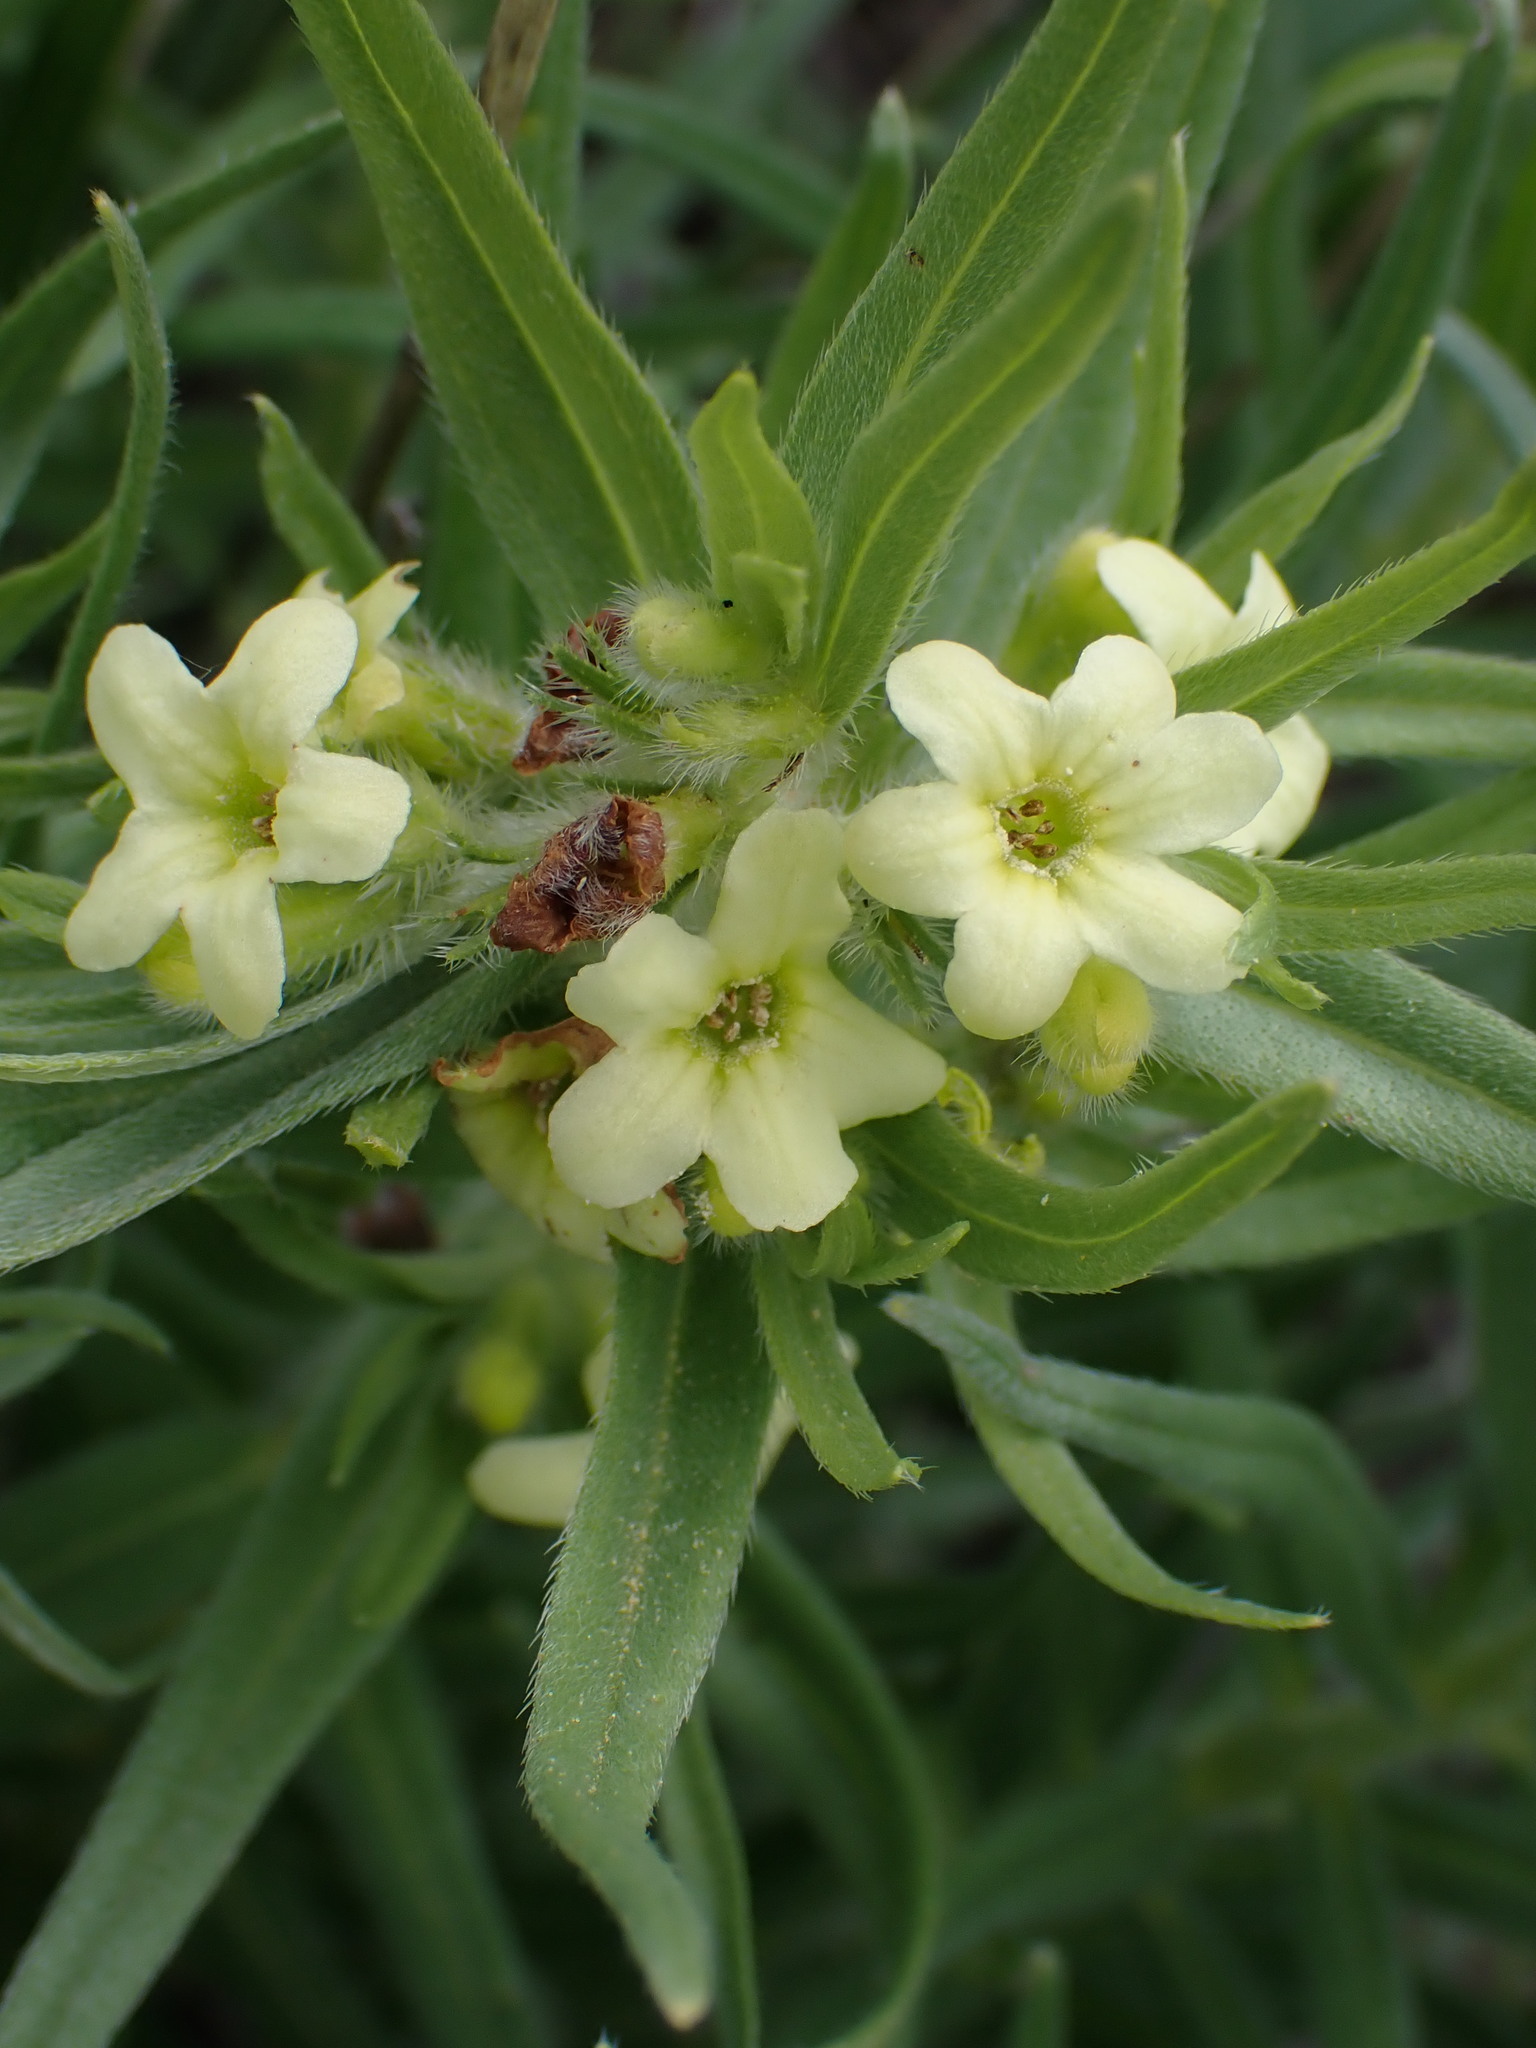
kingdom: Plantae
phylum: Tracheophyta
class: Magnoliopsida
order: Boraginales
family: Boraginaceae
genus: Lithospermum
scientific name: Lithospermum ruderale
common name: Western gromwell
